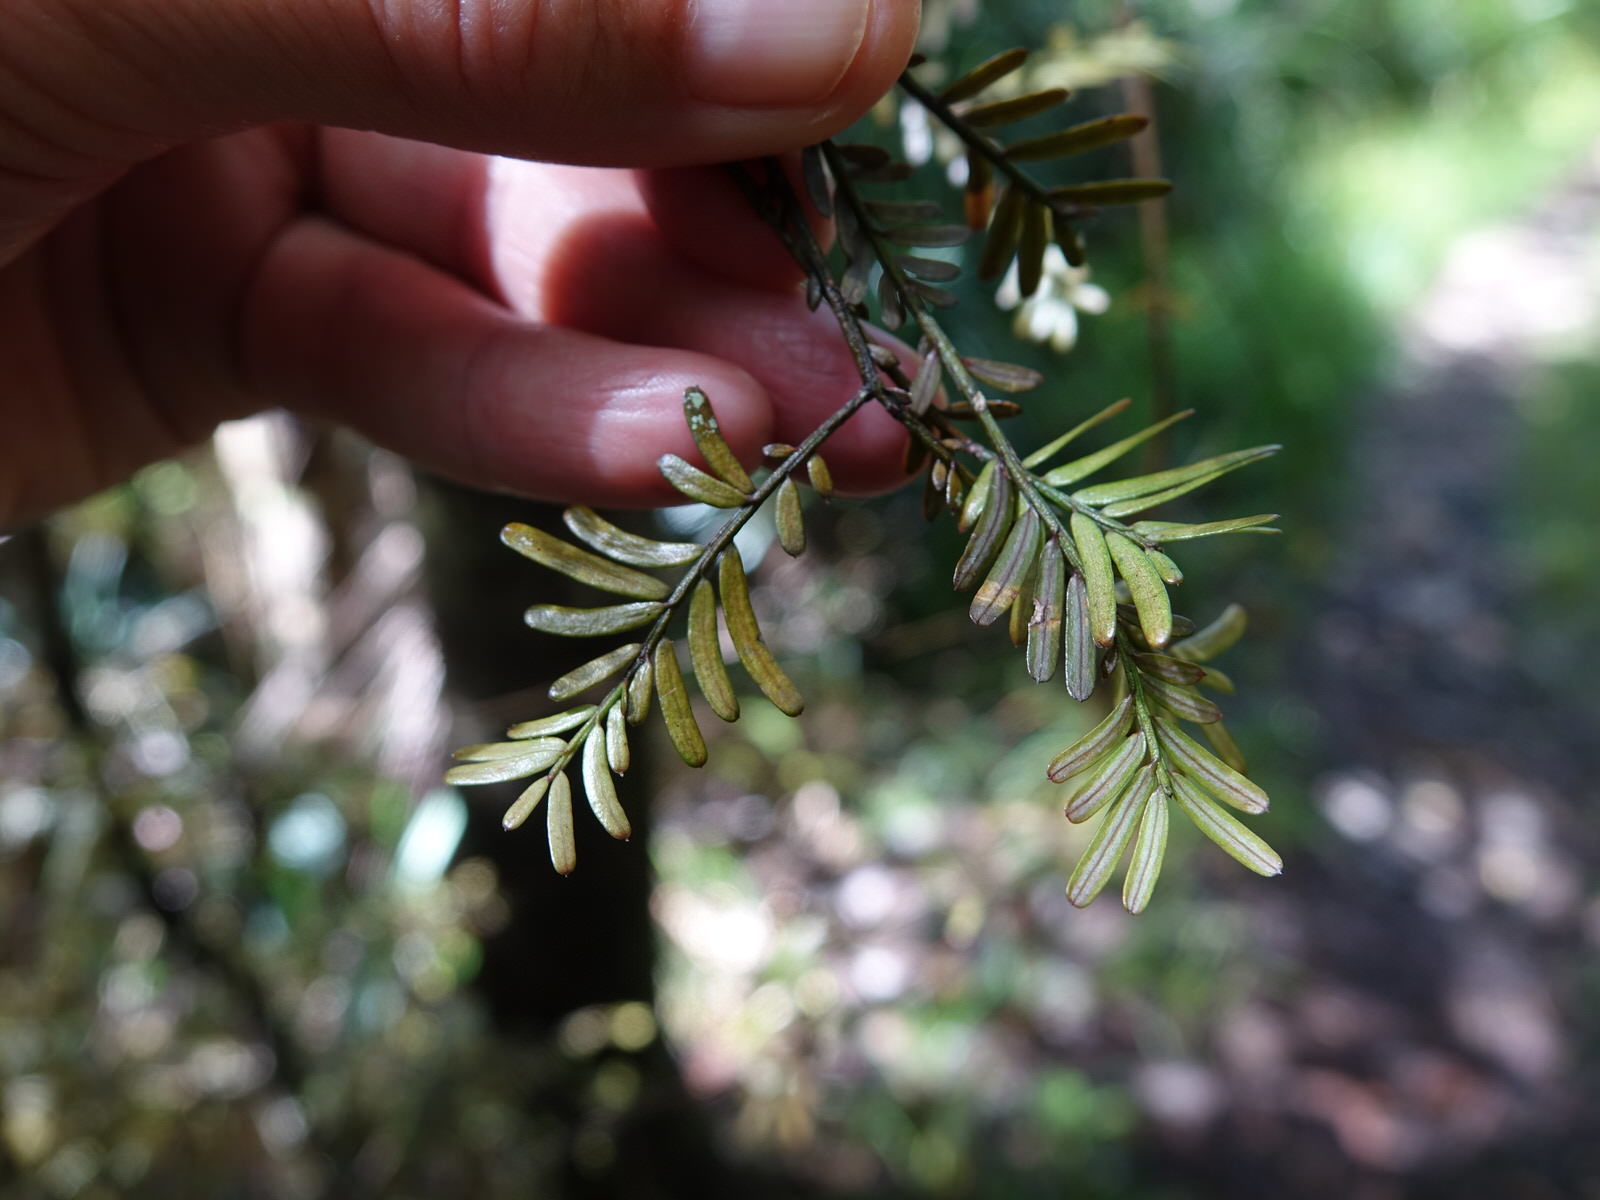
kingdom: Plantae
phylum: Tracheophyta
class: Pinopsida
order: Pinales
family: Podocarpaceae
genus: Prumnopitys
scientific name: Prumnopitys taxifolia
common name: Matai
